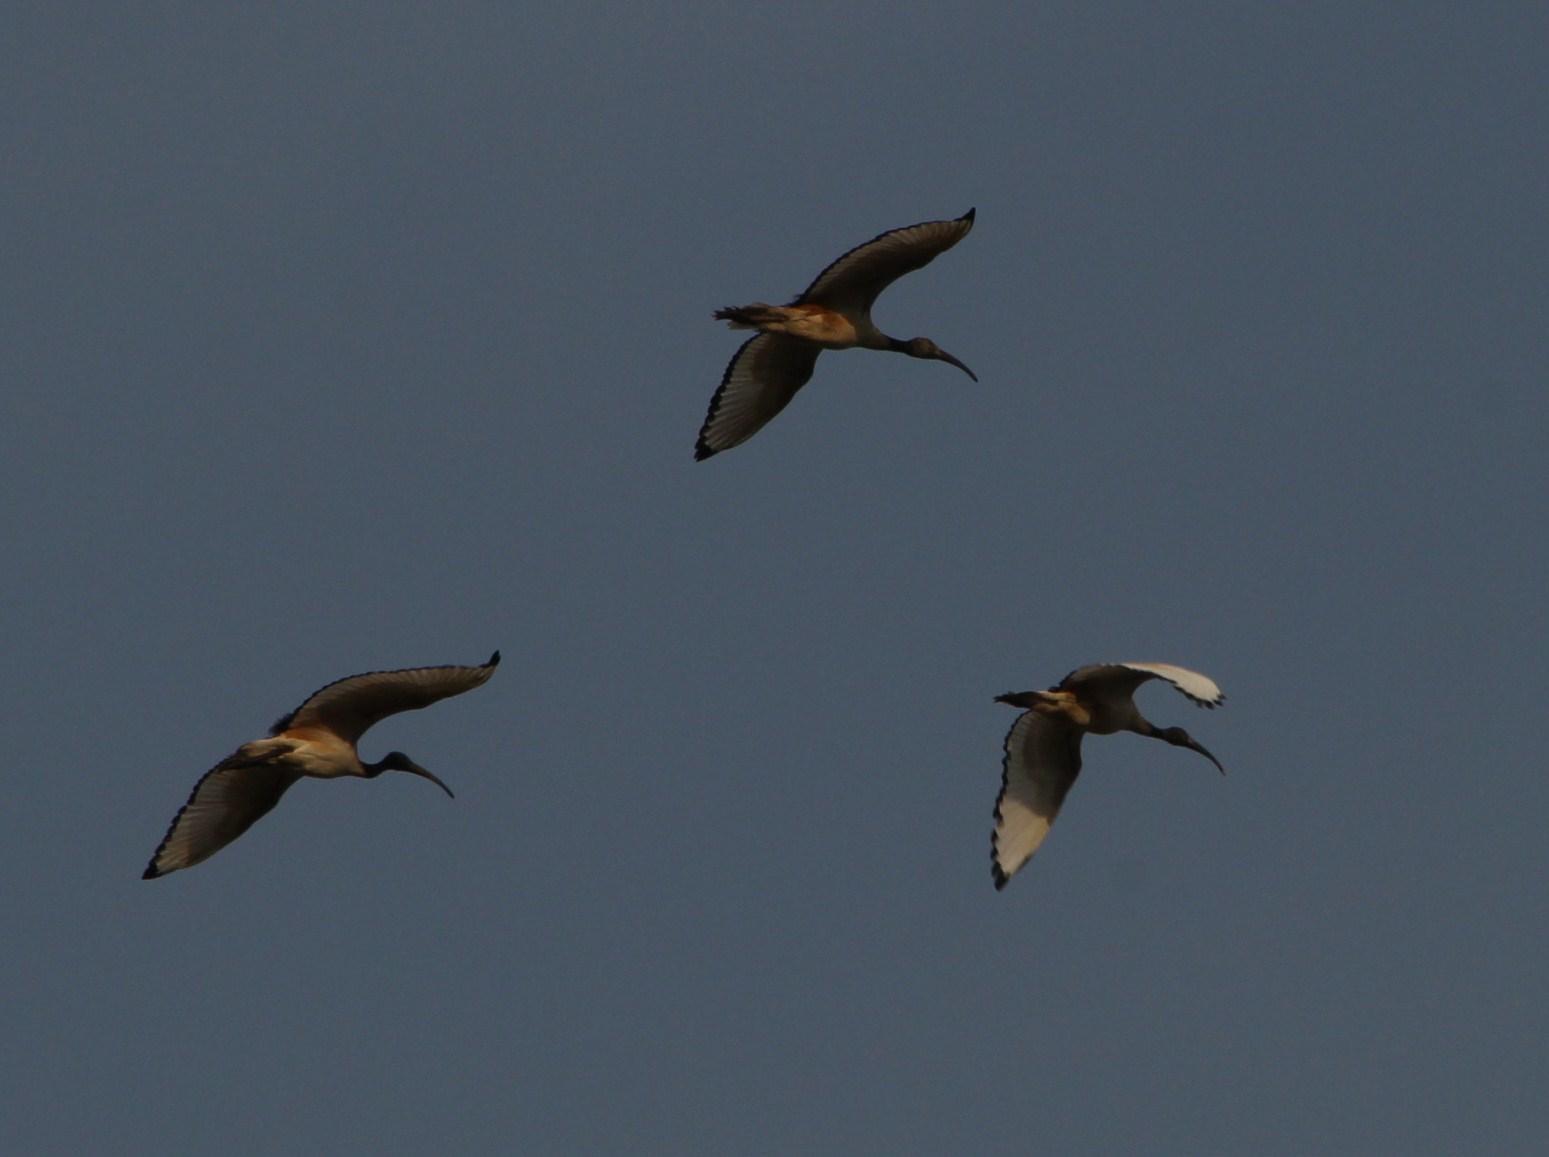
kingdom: Animalia
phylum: Chordata
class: Aves
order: Pelecaniformes
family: Threskiornithidae
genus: Threskiornis
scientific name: Threskiornis aethiopicus
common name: Sacred ibis
